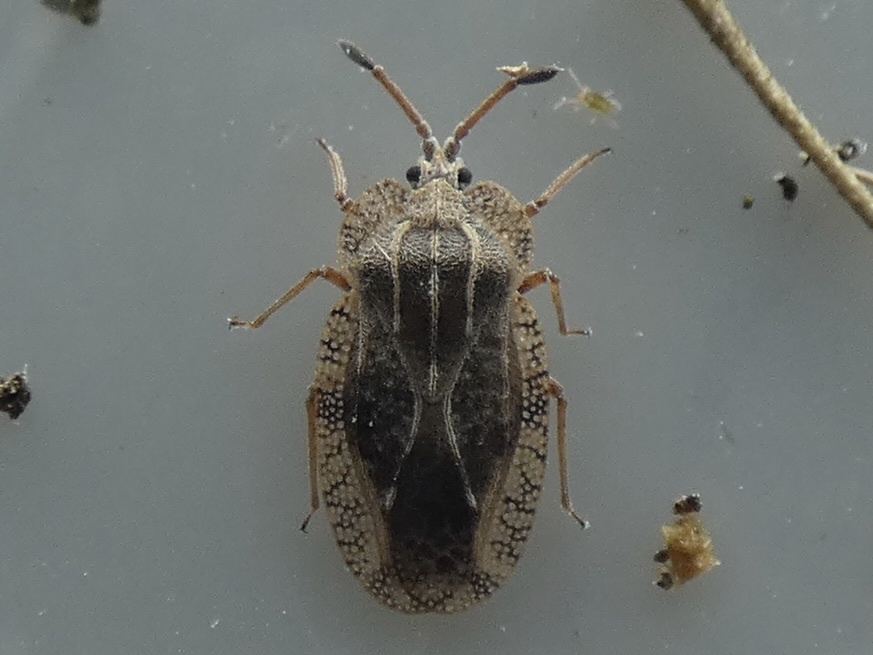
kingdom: Animalia
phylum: Arthropoda
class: Insecta
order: Hemiptera
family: Tingidae
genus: Tingis
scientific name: Tingis ampliata
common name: Creeping thistle lacebug
